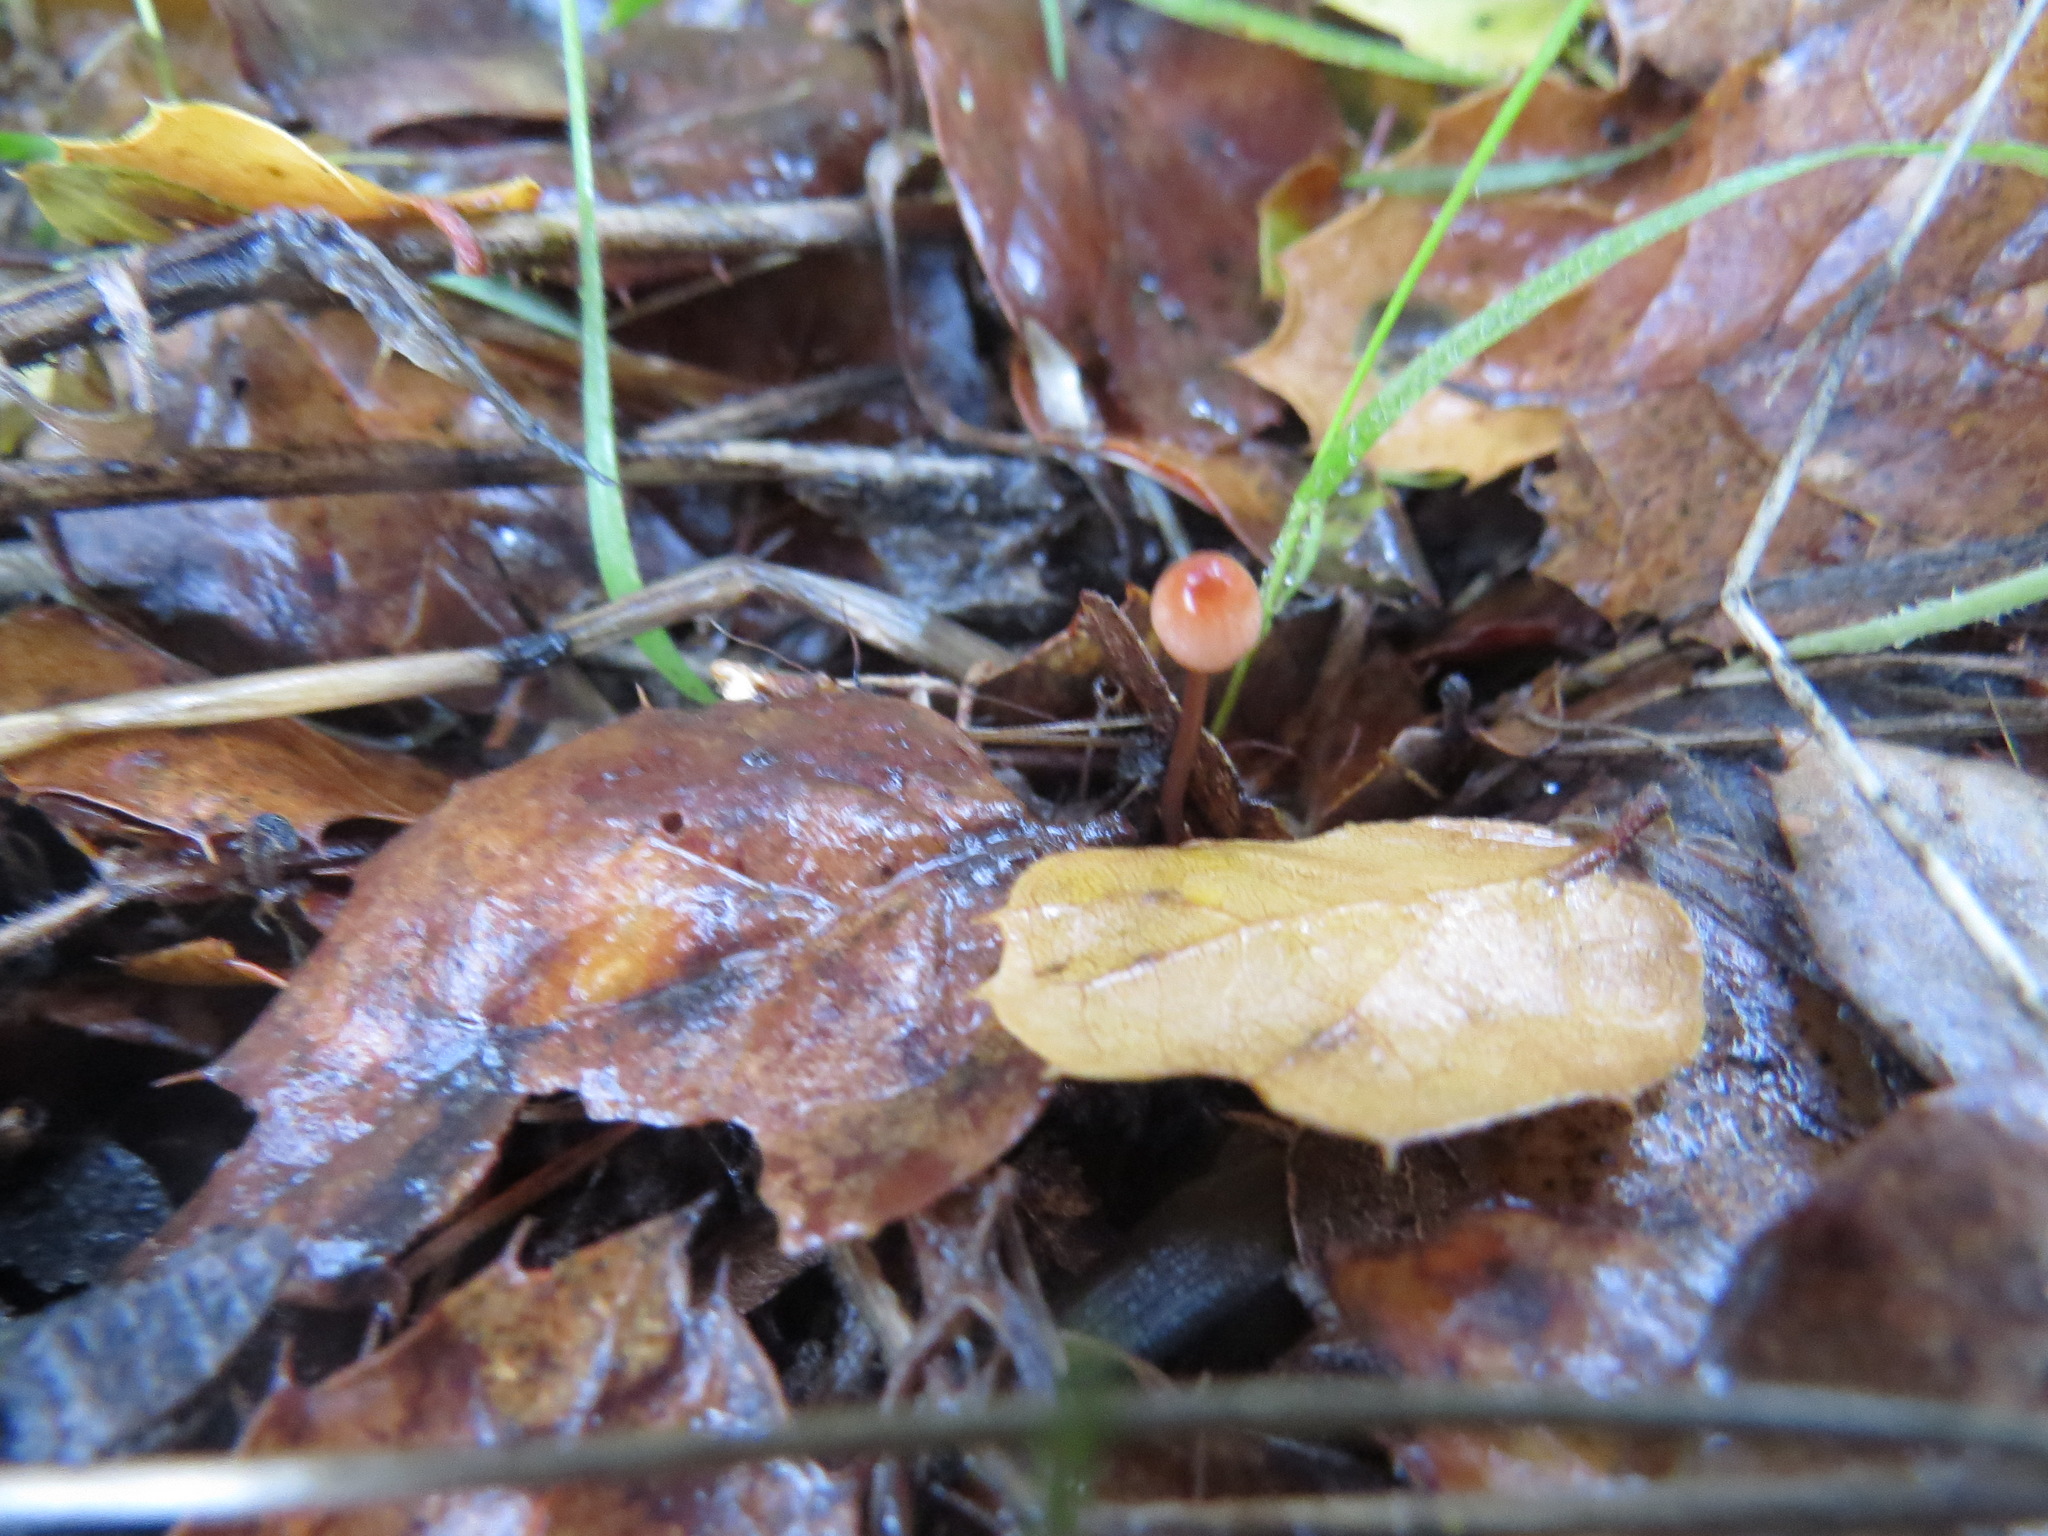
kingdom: Fungi
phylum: Basidiomycota
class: Agaricomycetes
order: Agaricales
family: Mycenaceae
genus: Mycena
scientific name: Mycena
